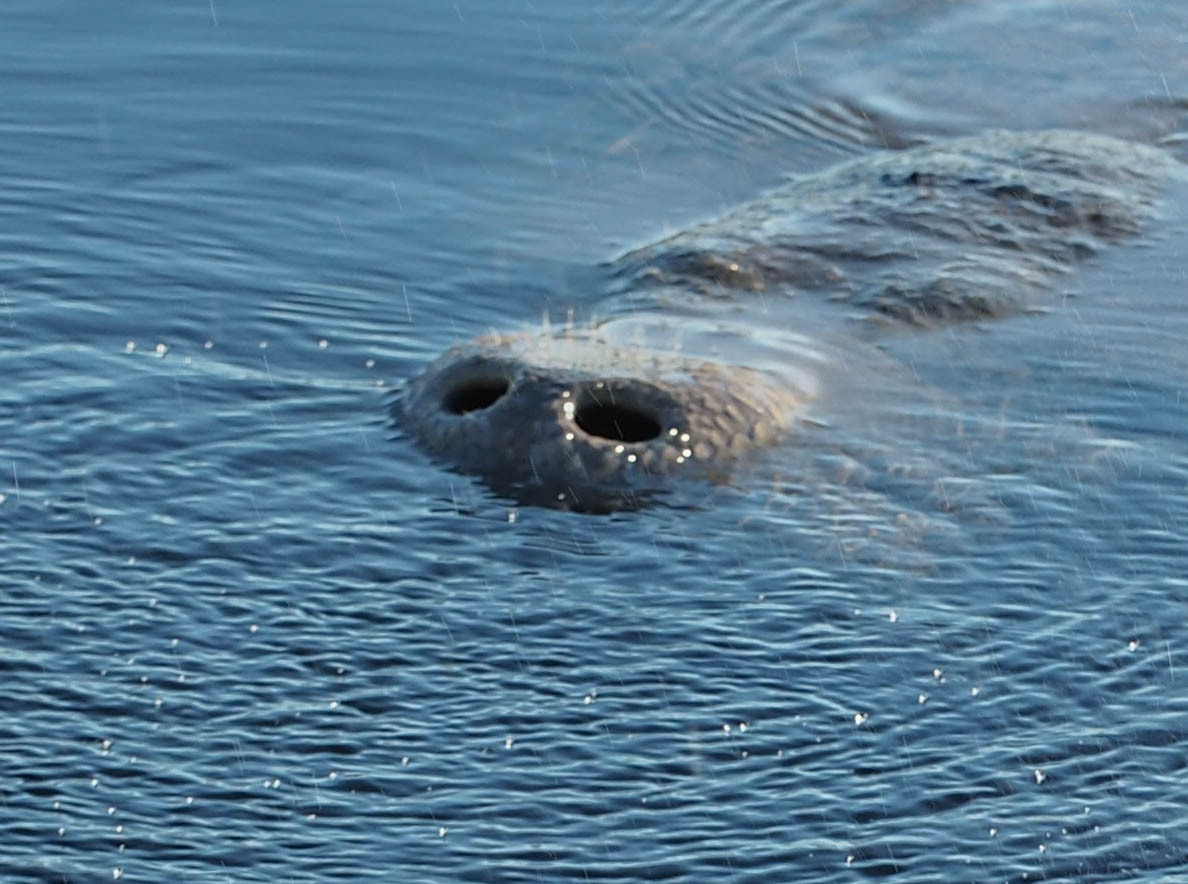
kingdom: Animalia
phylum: Chordata
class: Mammalia
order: Sirenia
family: Trichechidae
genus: Trichechus
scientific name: Trichechus manatus
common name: West indian manatee
